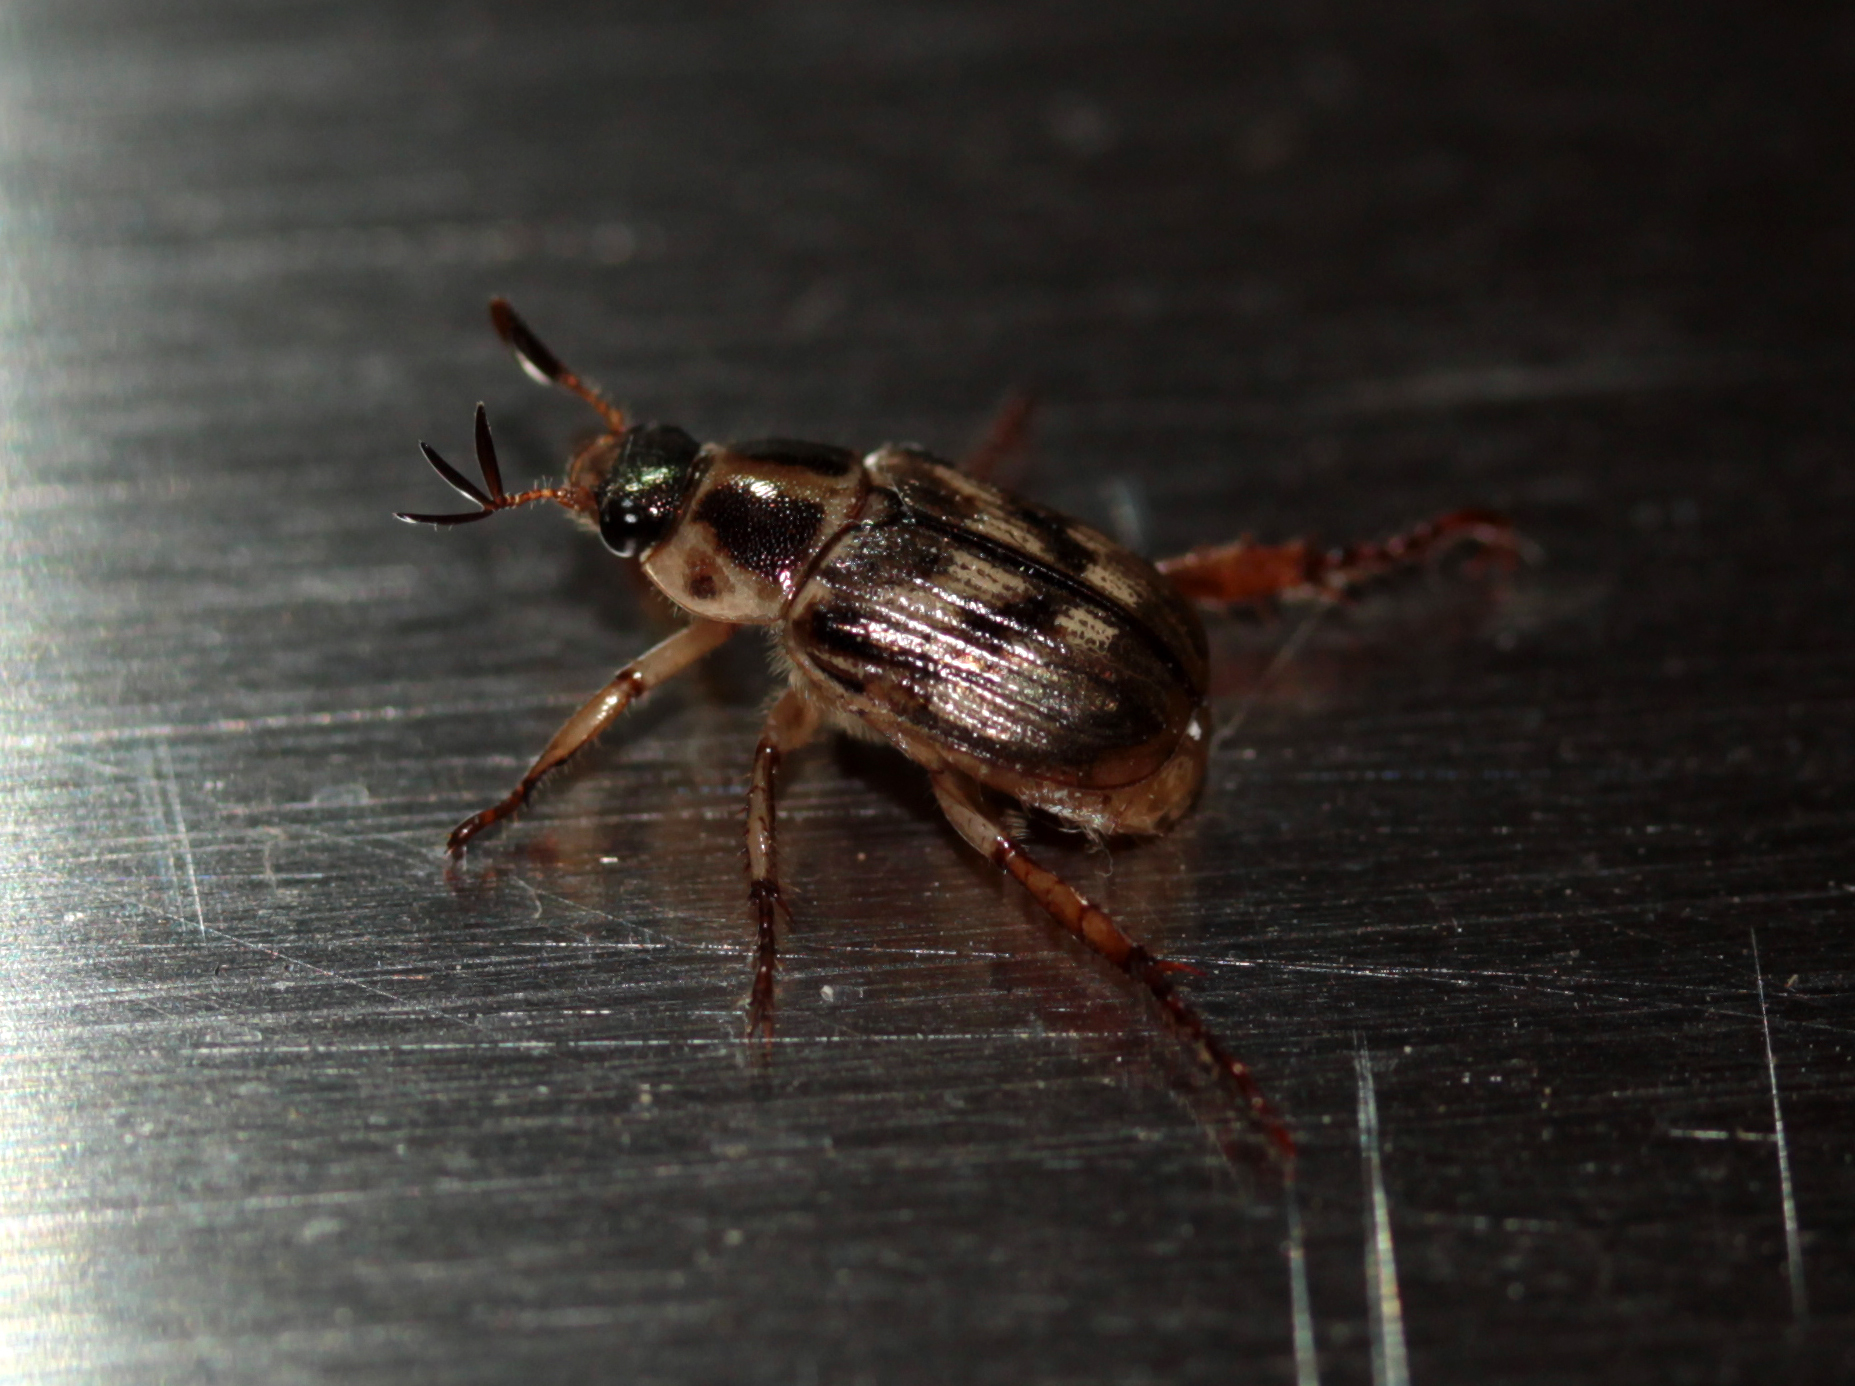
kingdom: Animalia
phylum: Arthropoda
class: Insecta
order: Coleoptera
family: Scarabaeidae
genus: Exomala
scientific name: Exomala orientalis
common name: Oriental beetle
